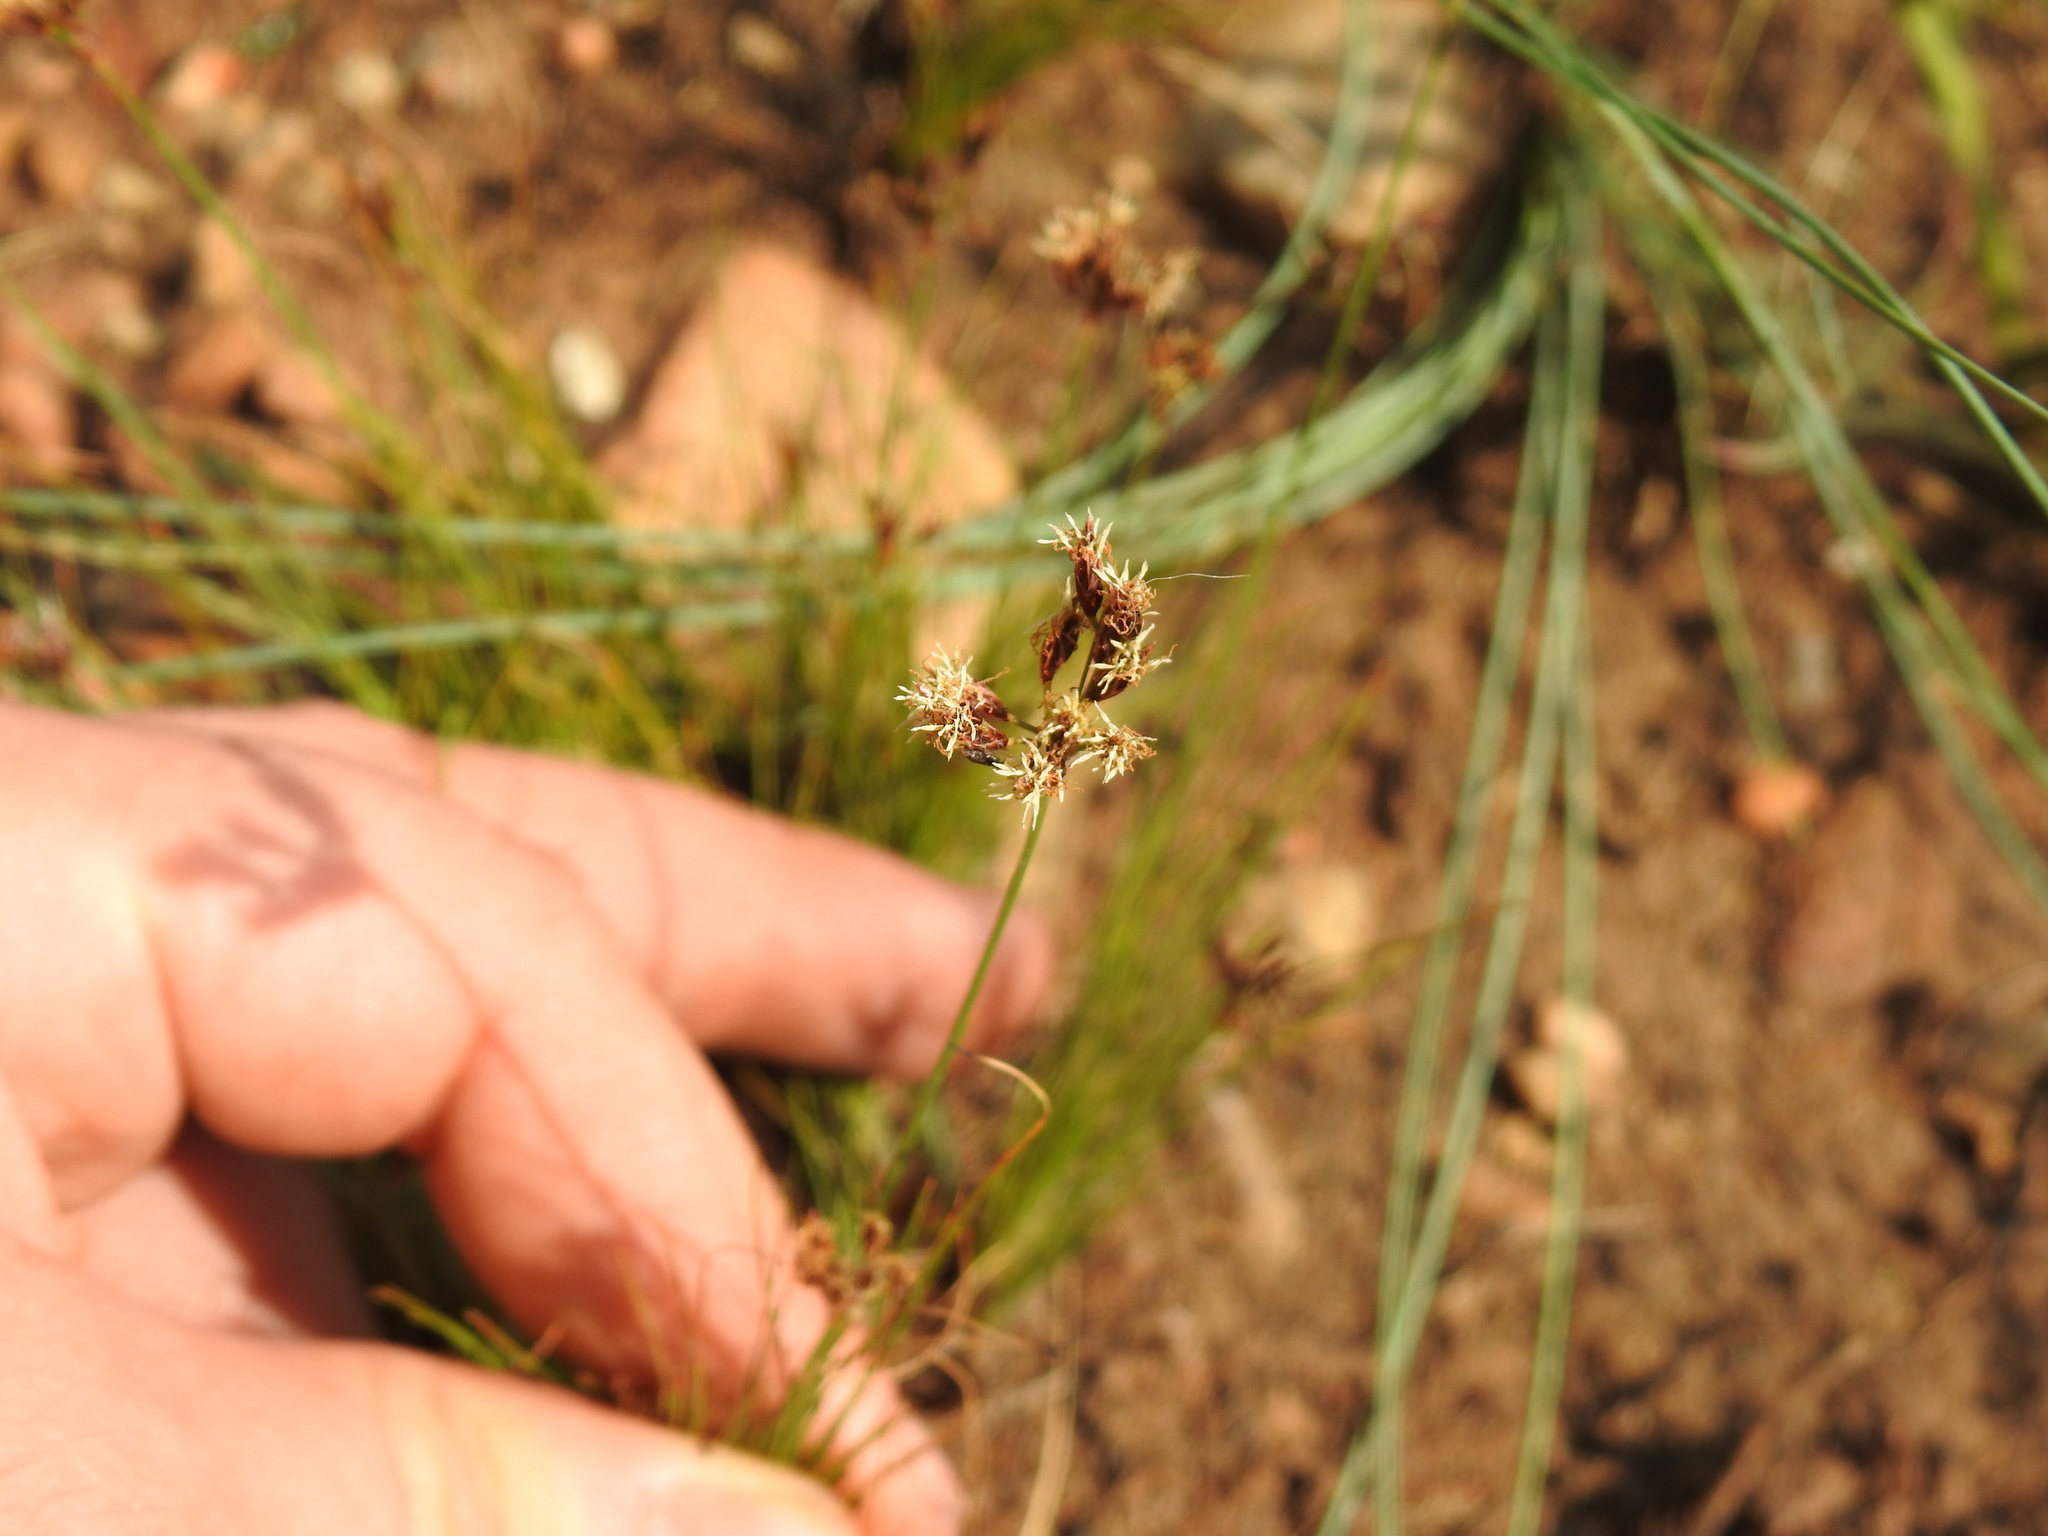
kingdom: Plantae
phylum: Tracheophyta
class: Liliopsida
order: Poales
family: Cyperaceae
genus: Bulbostylis
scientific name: Bulbostylis burchellii
